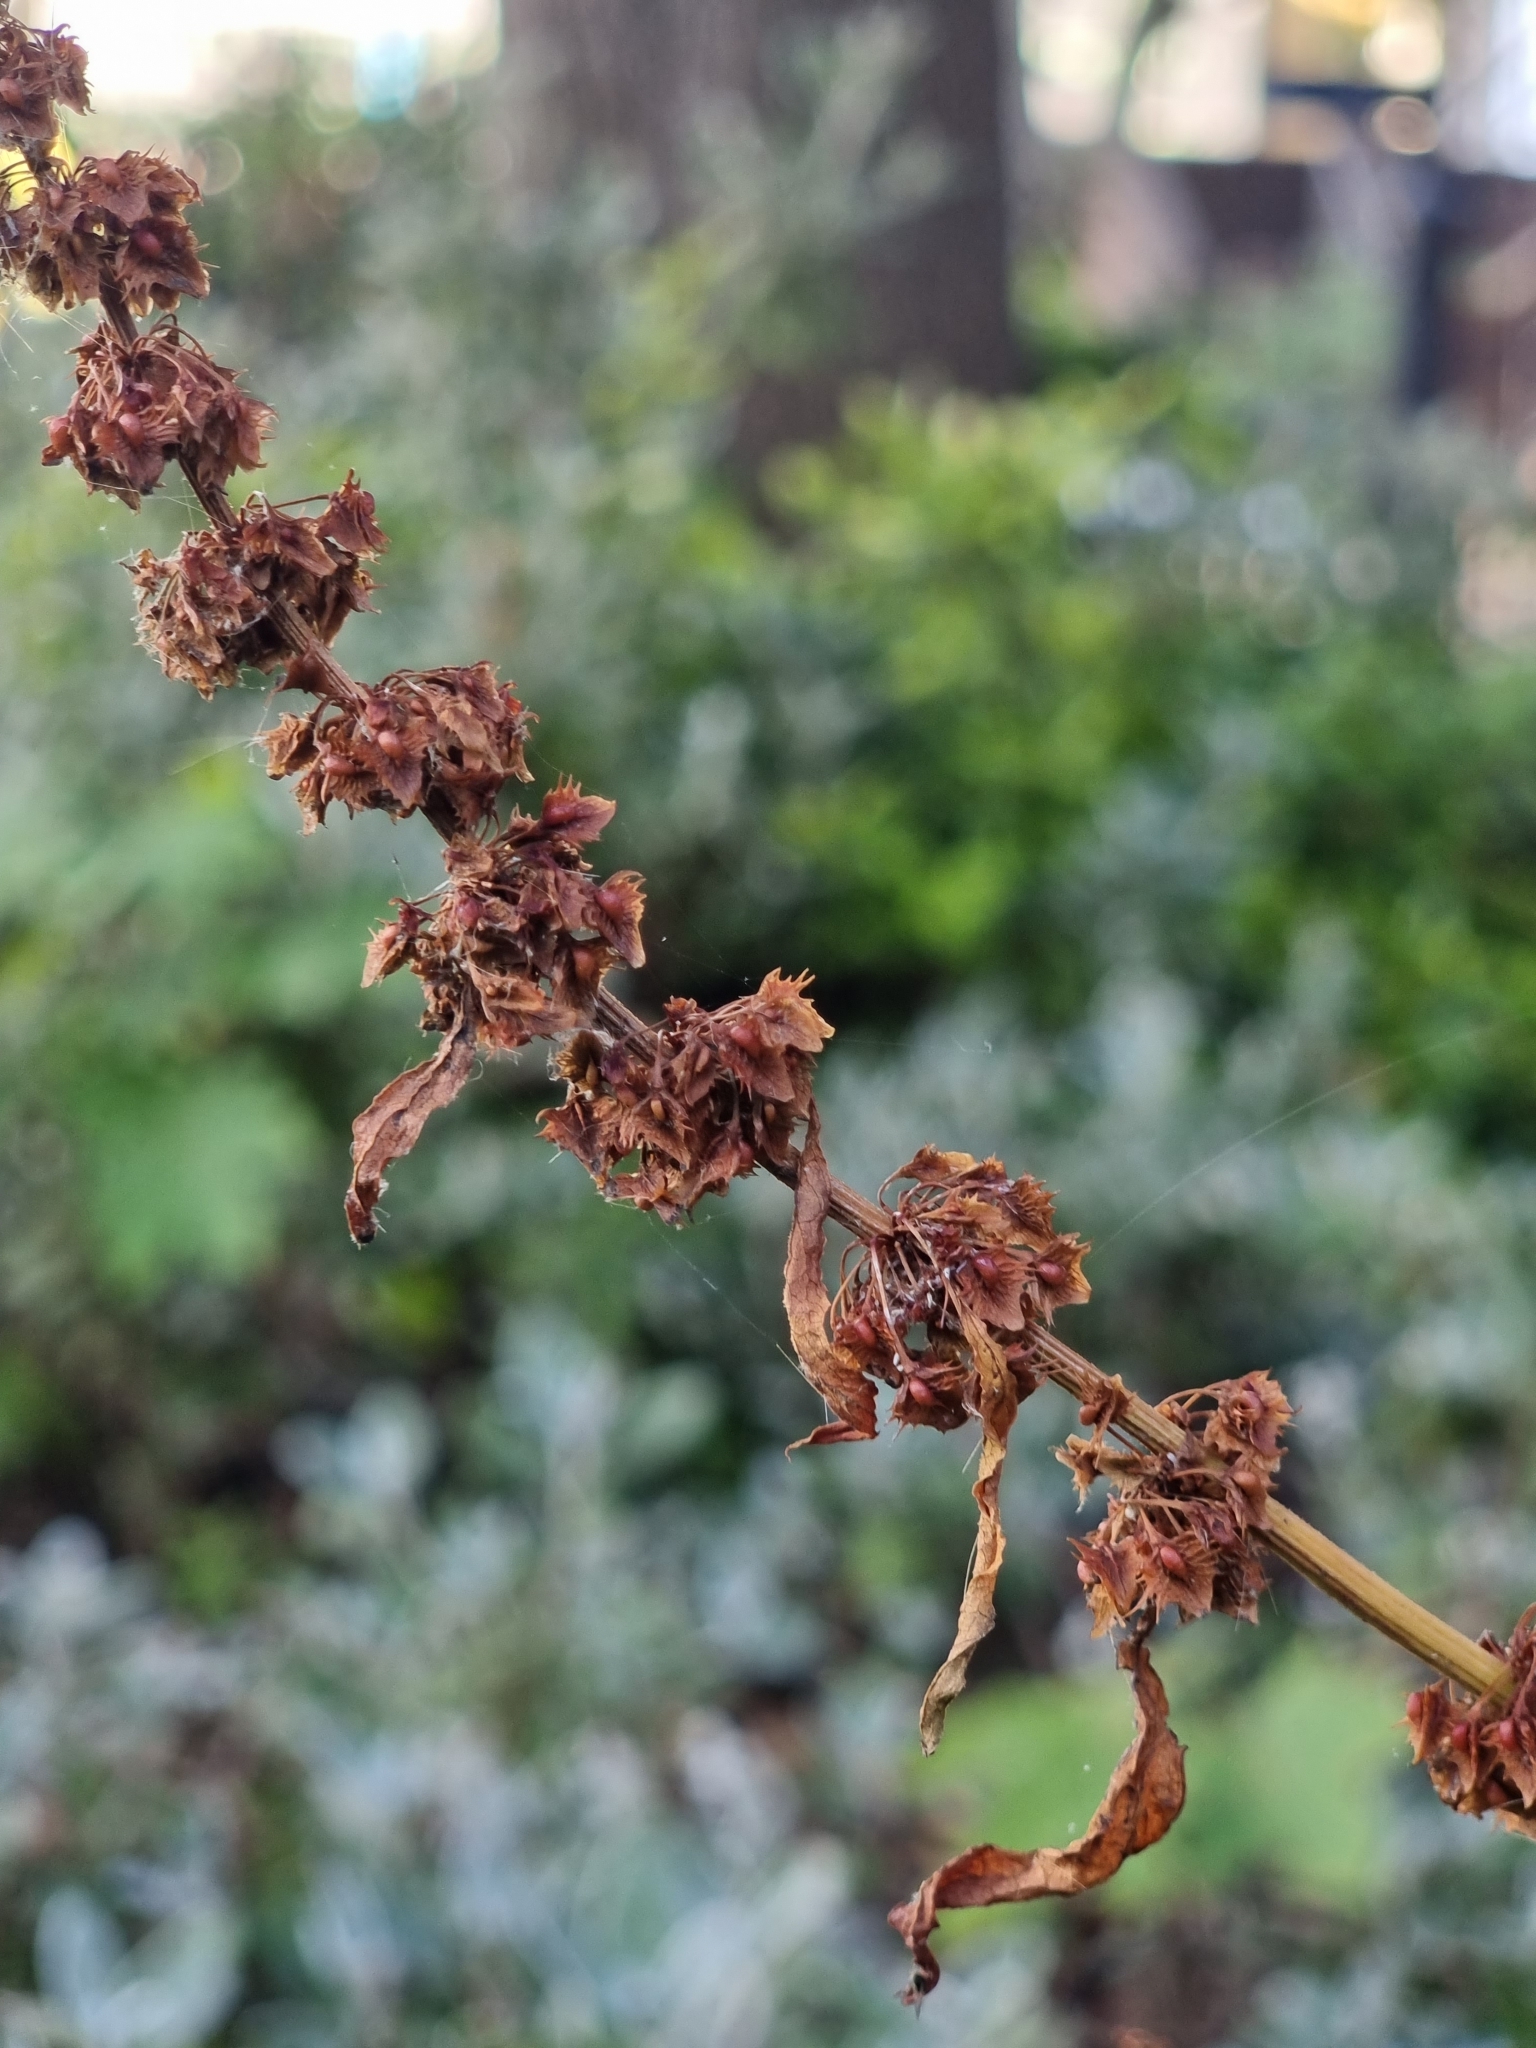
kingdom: Plantae
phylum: Tracheophyta
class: Magnoliopsida
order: Caryophyllales
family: Polygonaceae
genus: Rumex
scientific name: Rumex obtusifolius
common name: Bitter dock
